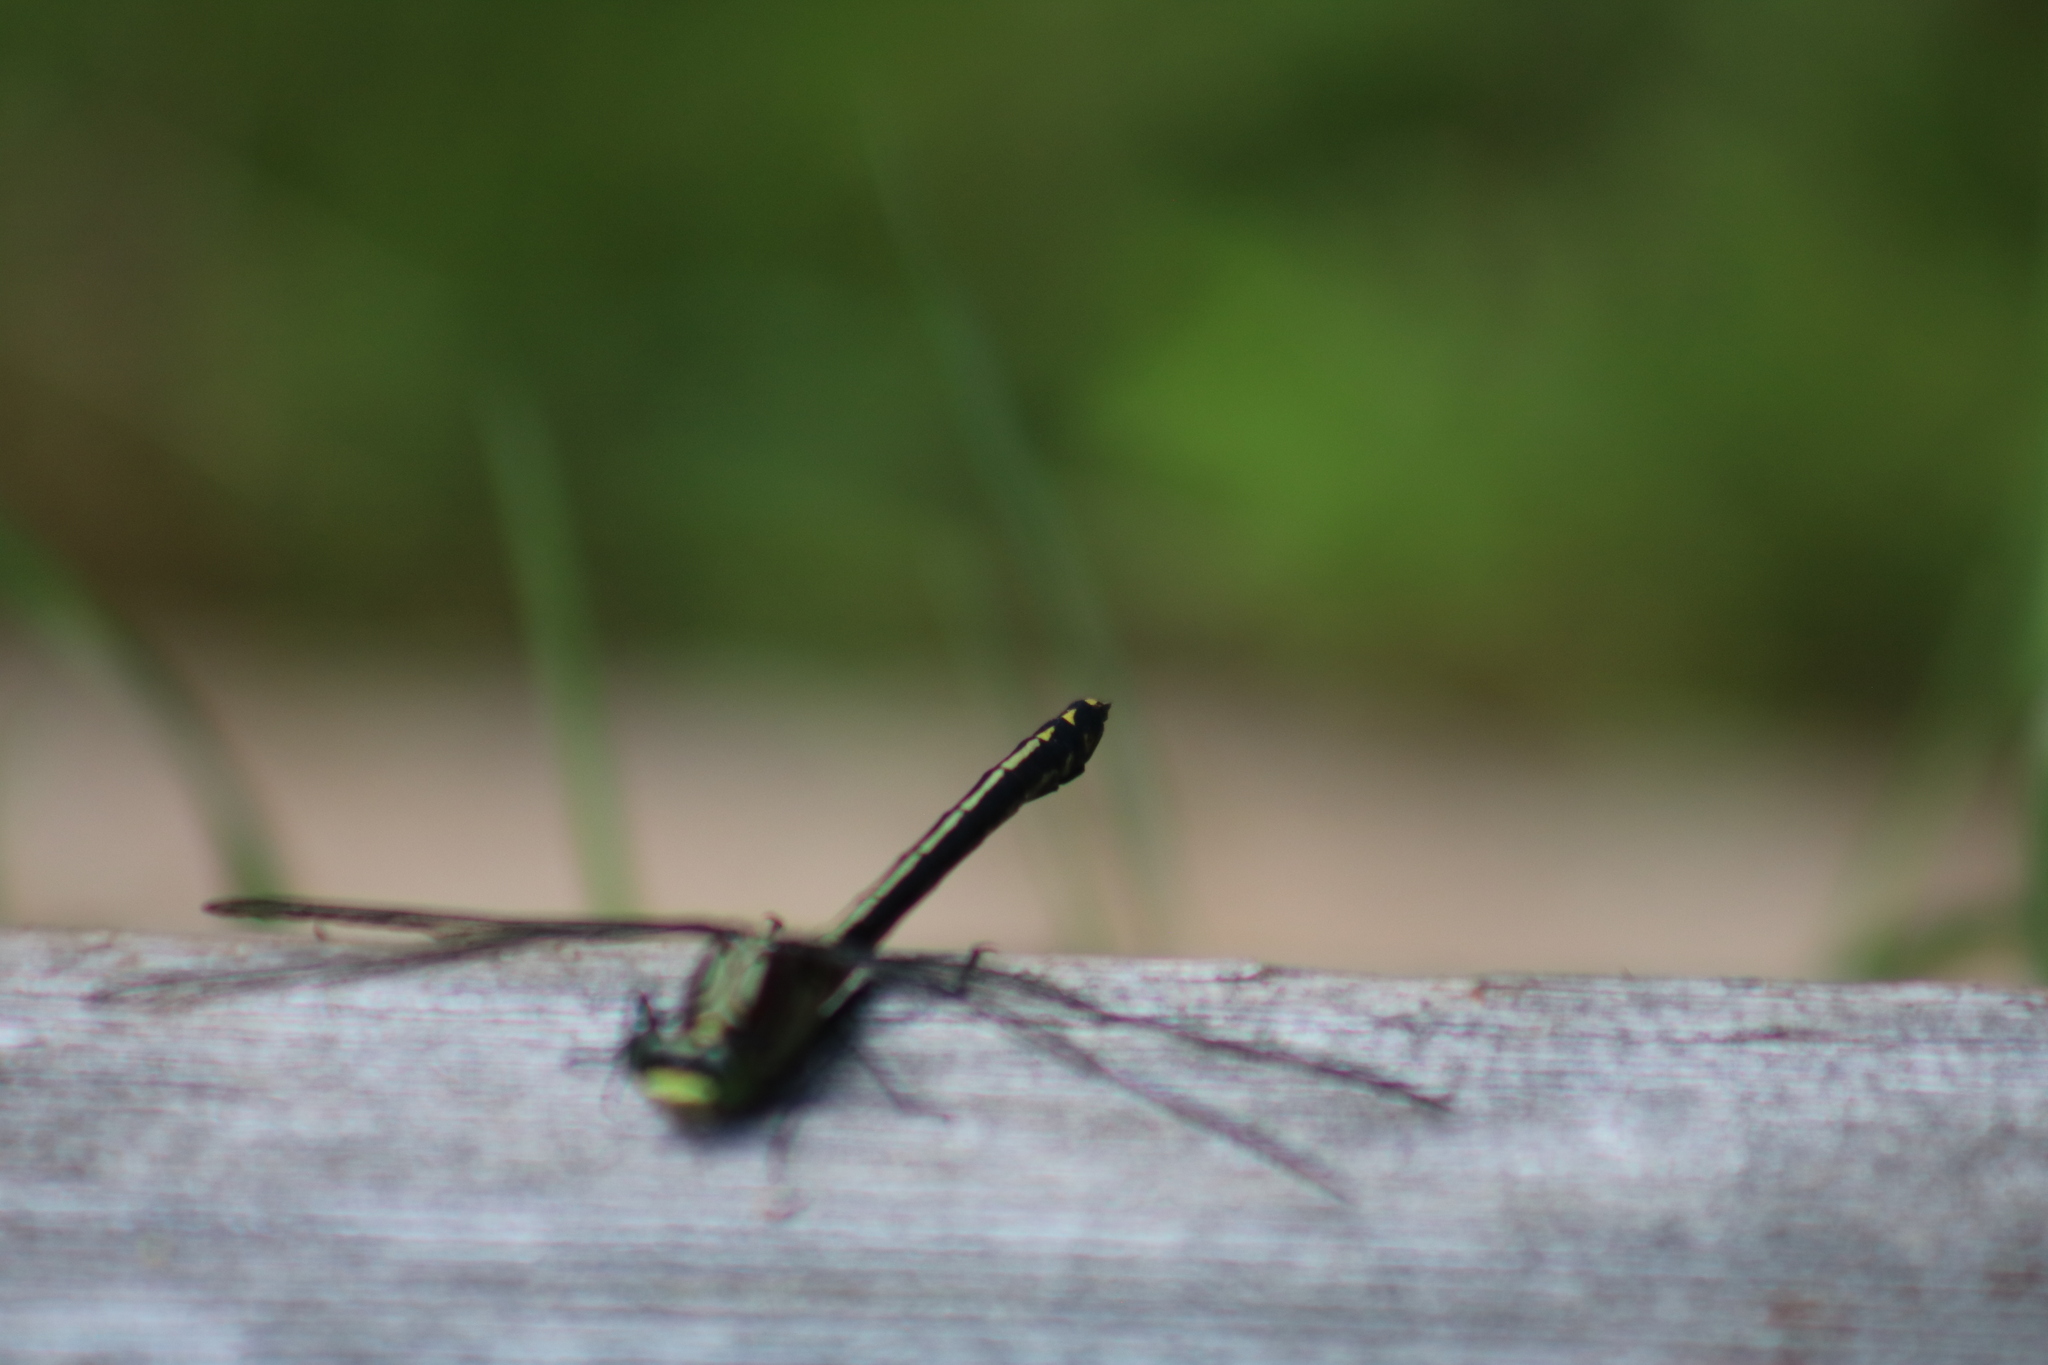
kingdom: Animalia
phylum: Arthropoda
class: Insecta
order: Odonata
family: Gomphidae
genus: Dromogomphus
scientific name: Dromogomphus spinosus
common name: Black-shouldered spinyleg
